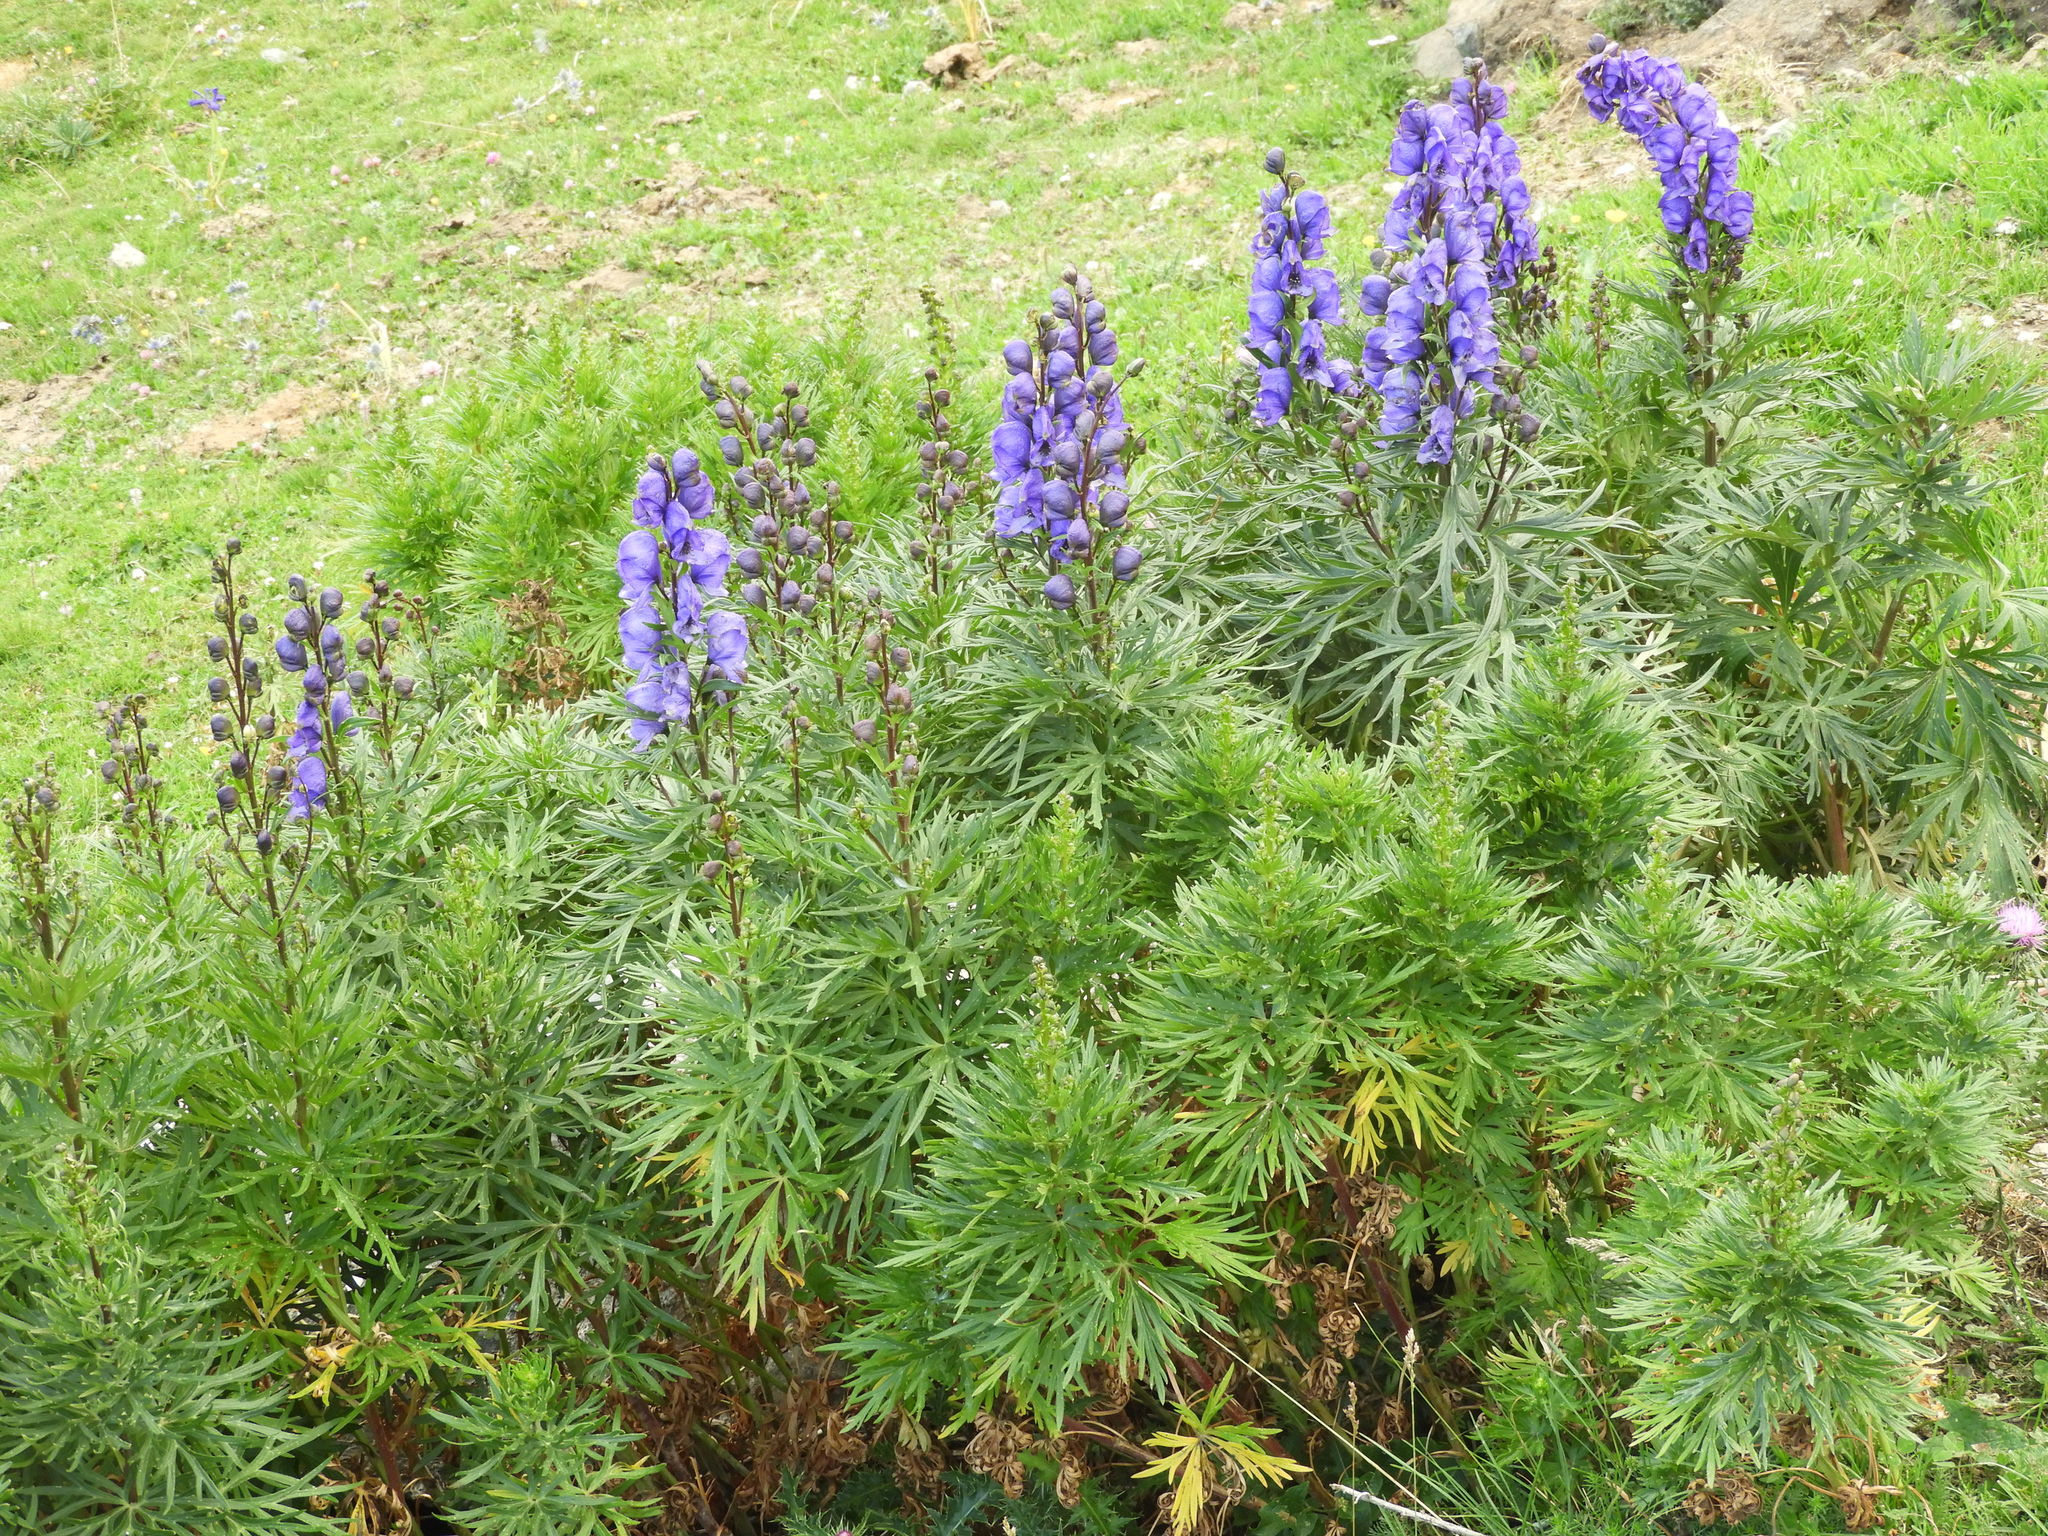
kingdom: Plantae
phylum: Tracheophyta
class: Magnoliopsida
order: Ranunculales
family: Ranunculaceae
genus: Aconitum
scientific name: Aconitum napellus
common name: Garden monkshood
